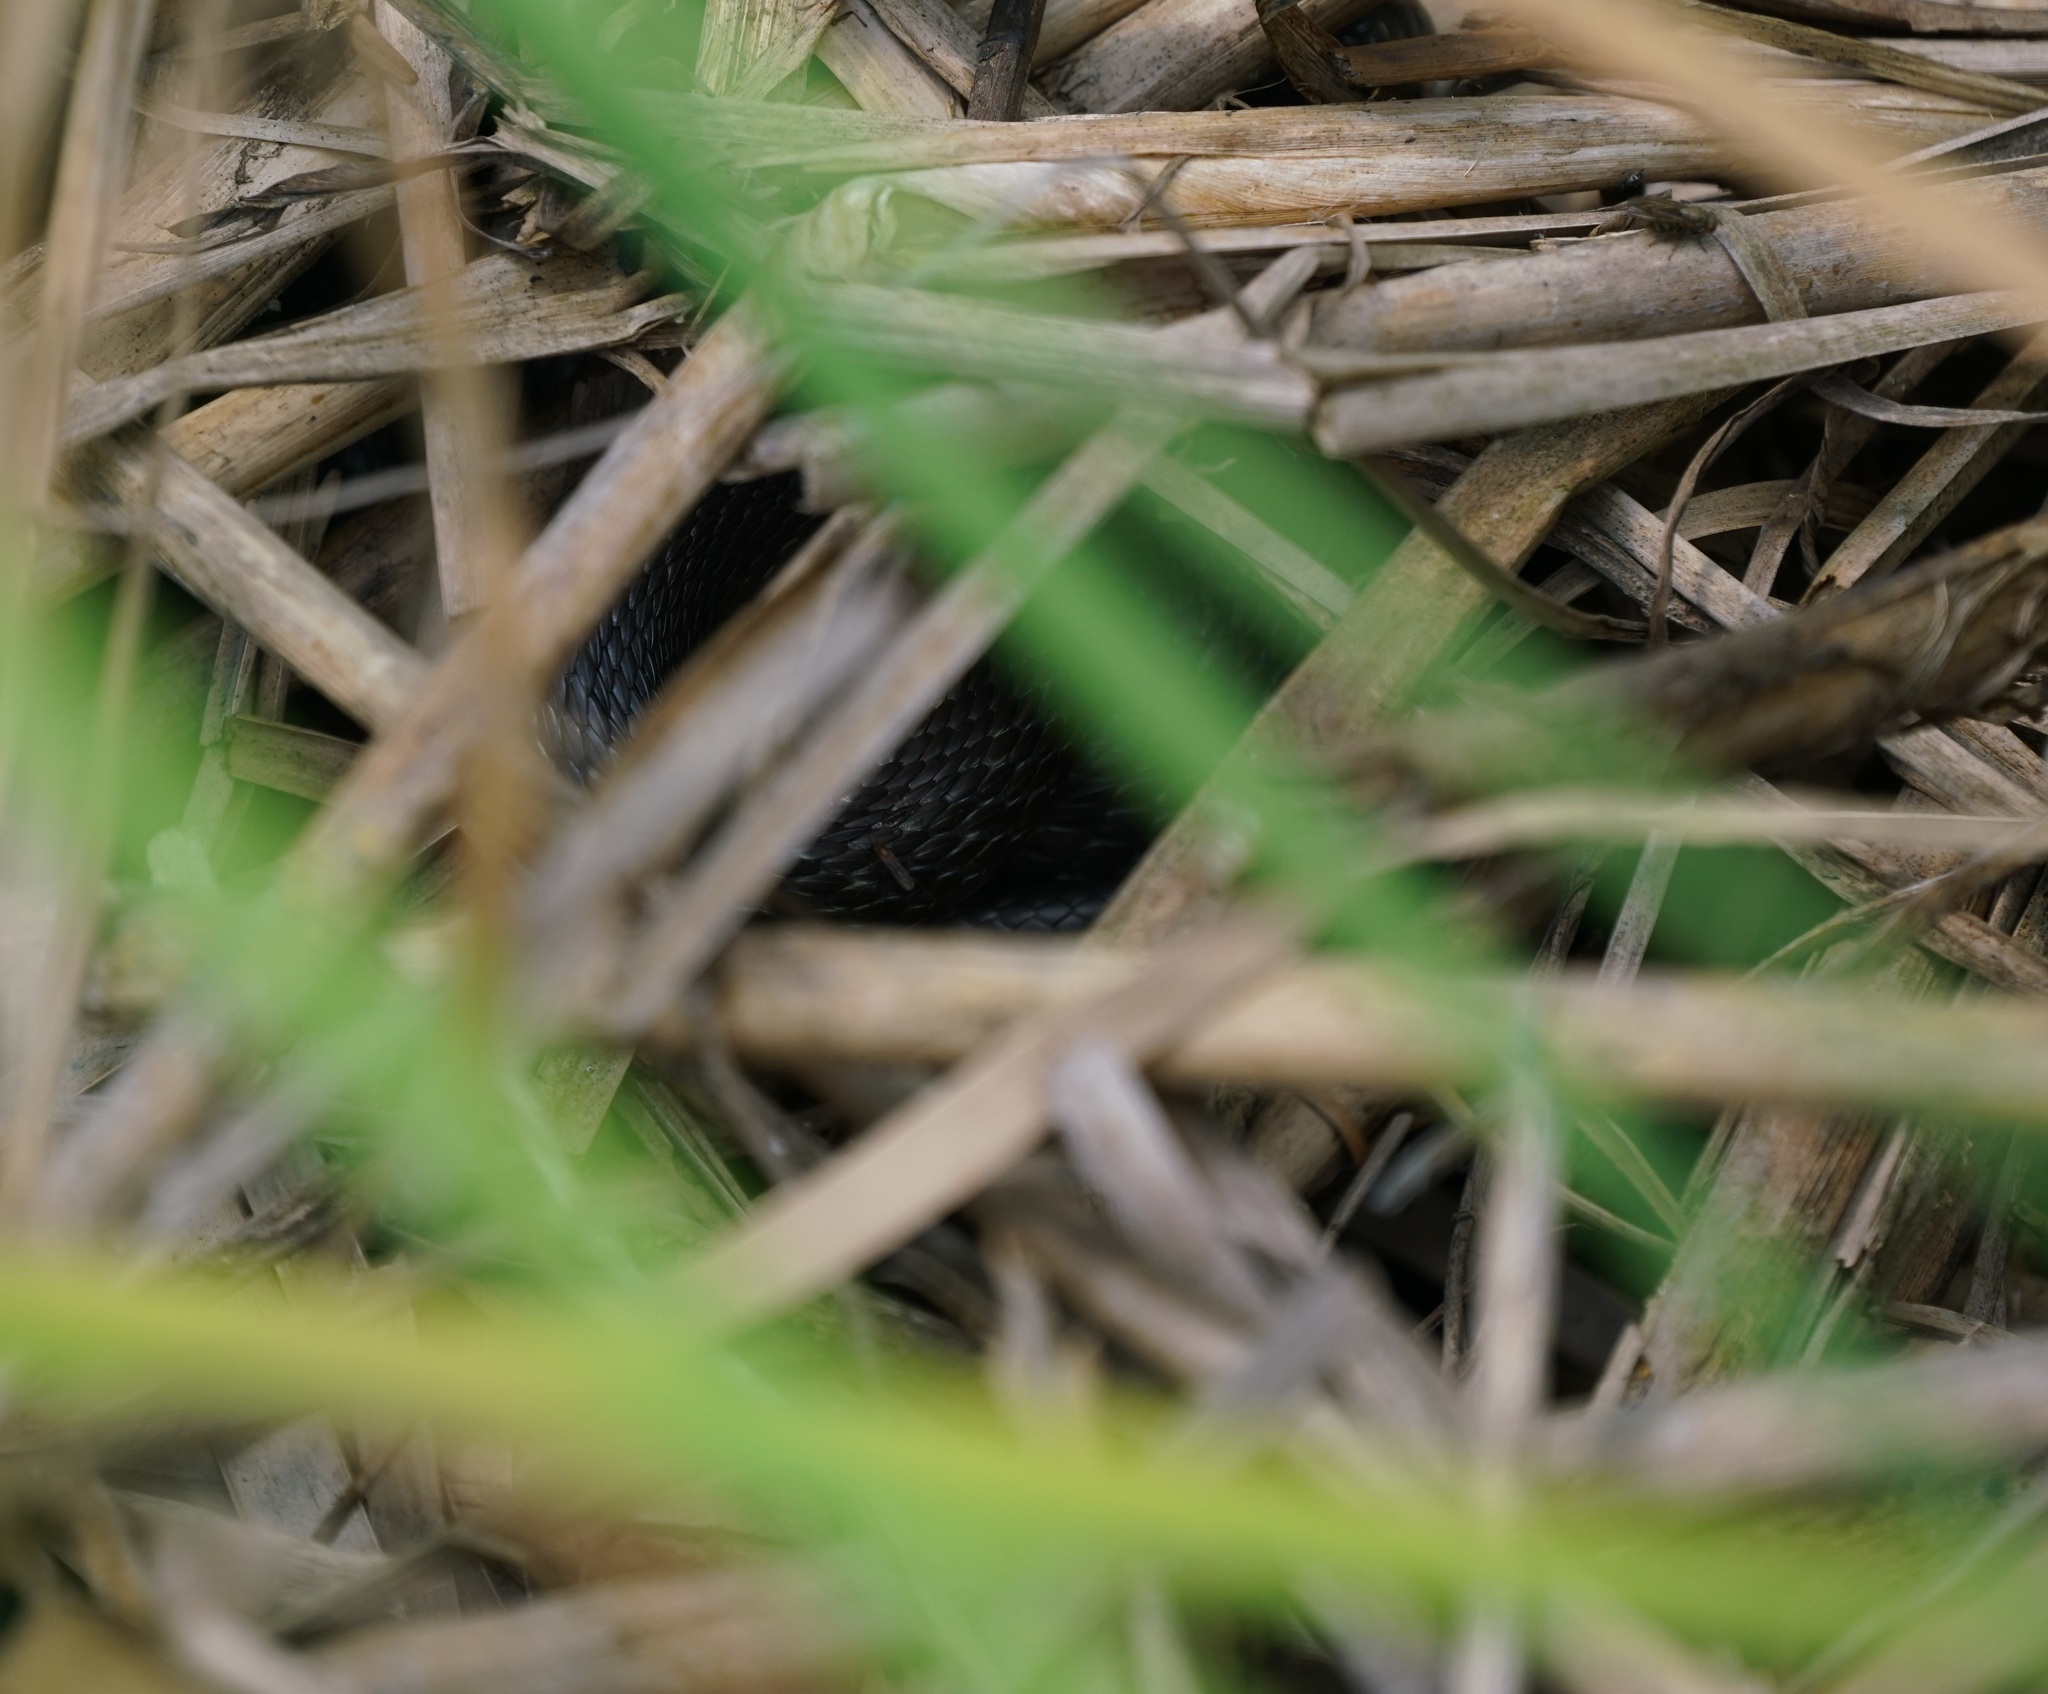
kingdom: Animalia
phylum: Chordata
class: Squamata
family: Colubridae
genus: Natrix
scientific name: Natrix natrix
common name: Grass snake
